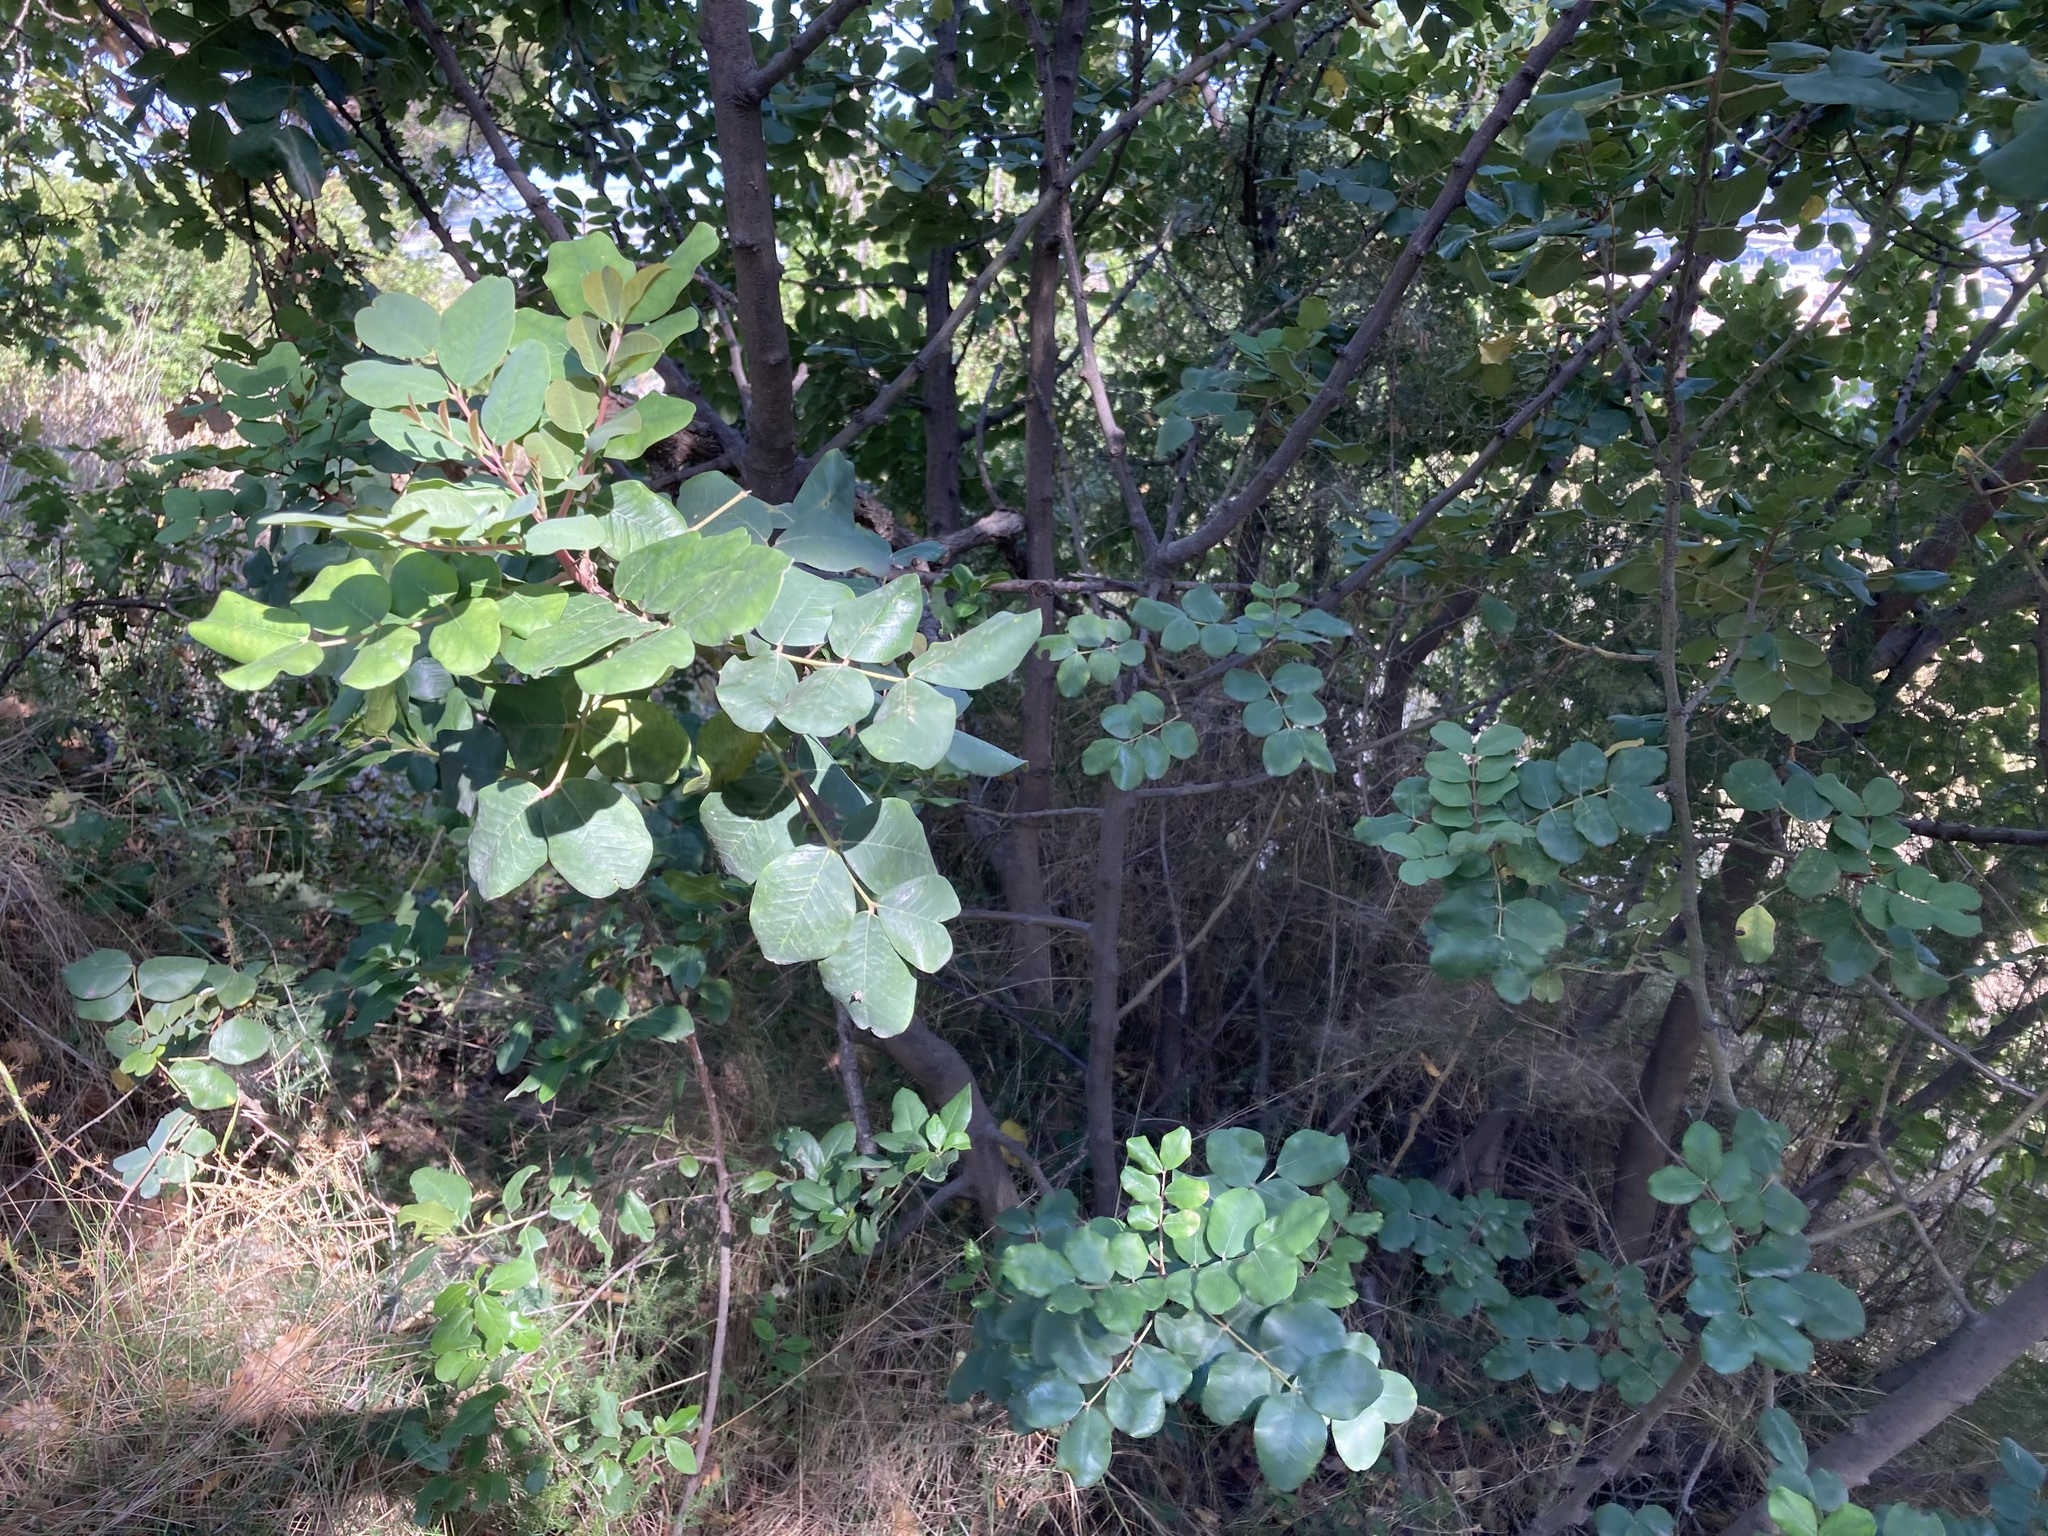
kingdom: Plantae
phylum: Tracheophyta
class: Magnoliopsida
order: Fabales
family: Fabaceae
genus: Ceratonia
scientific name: Ceratonia siliqua
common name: Carob
